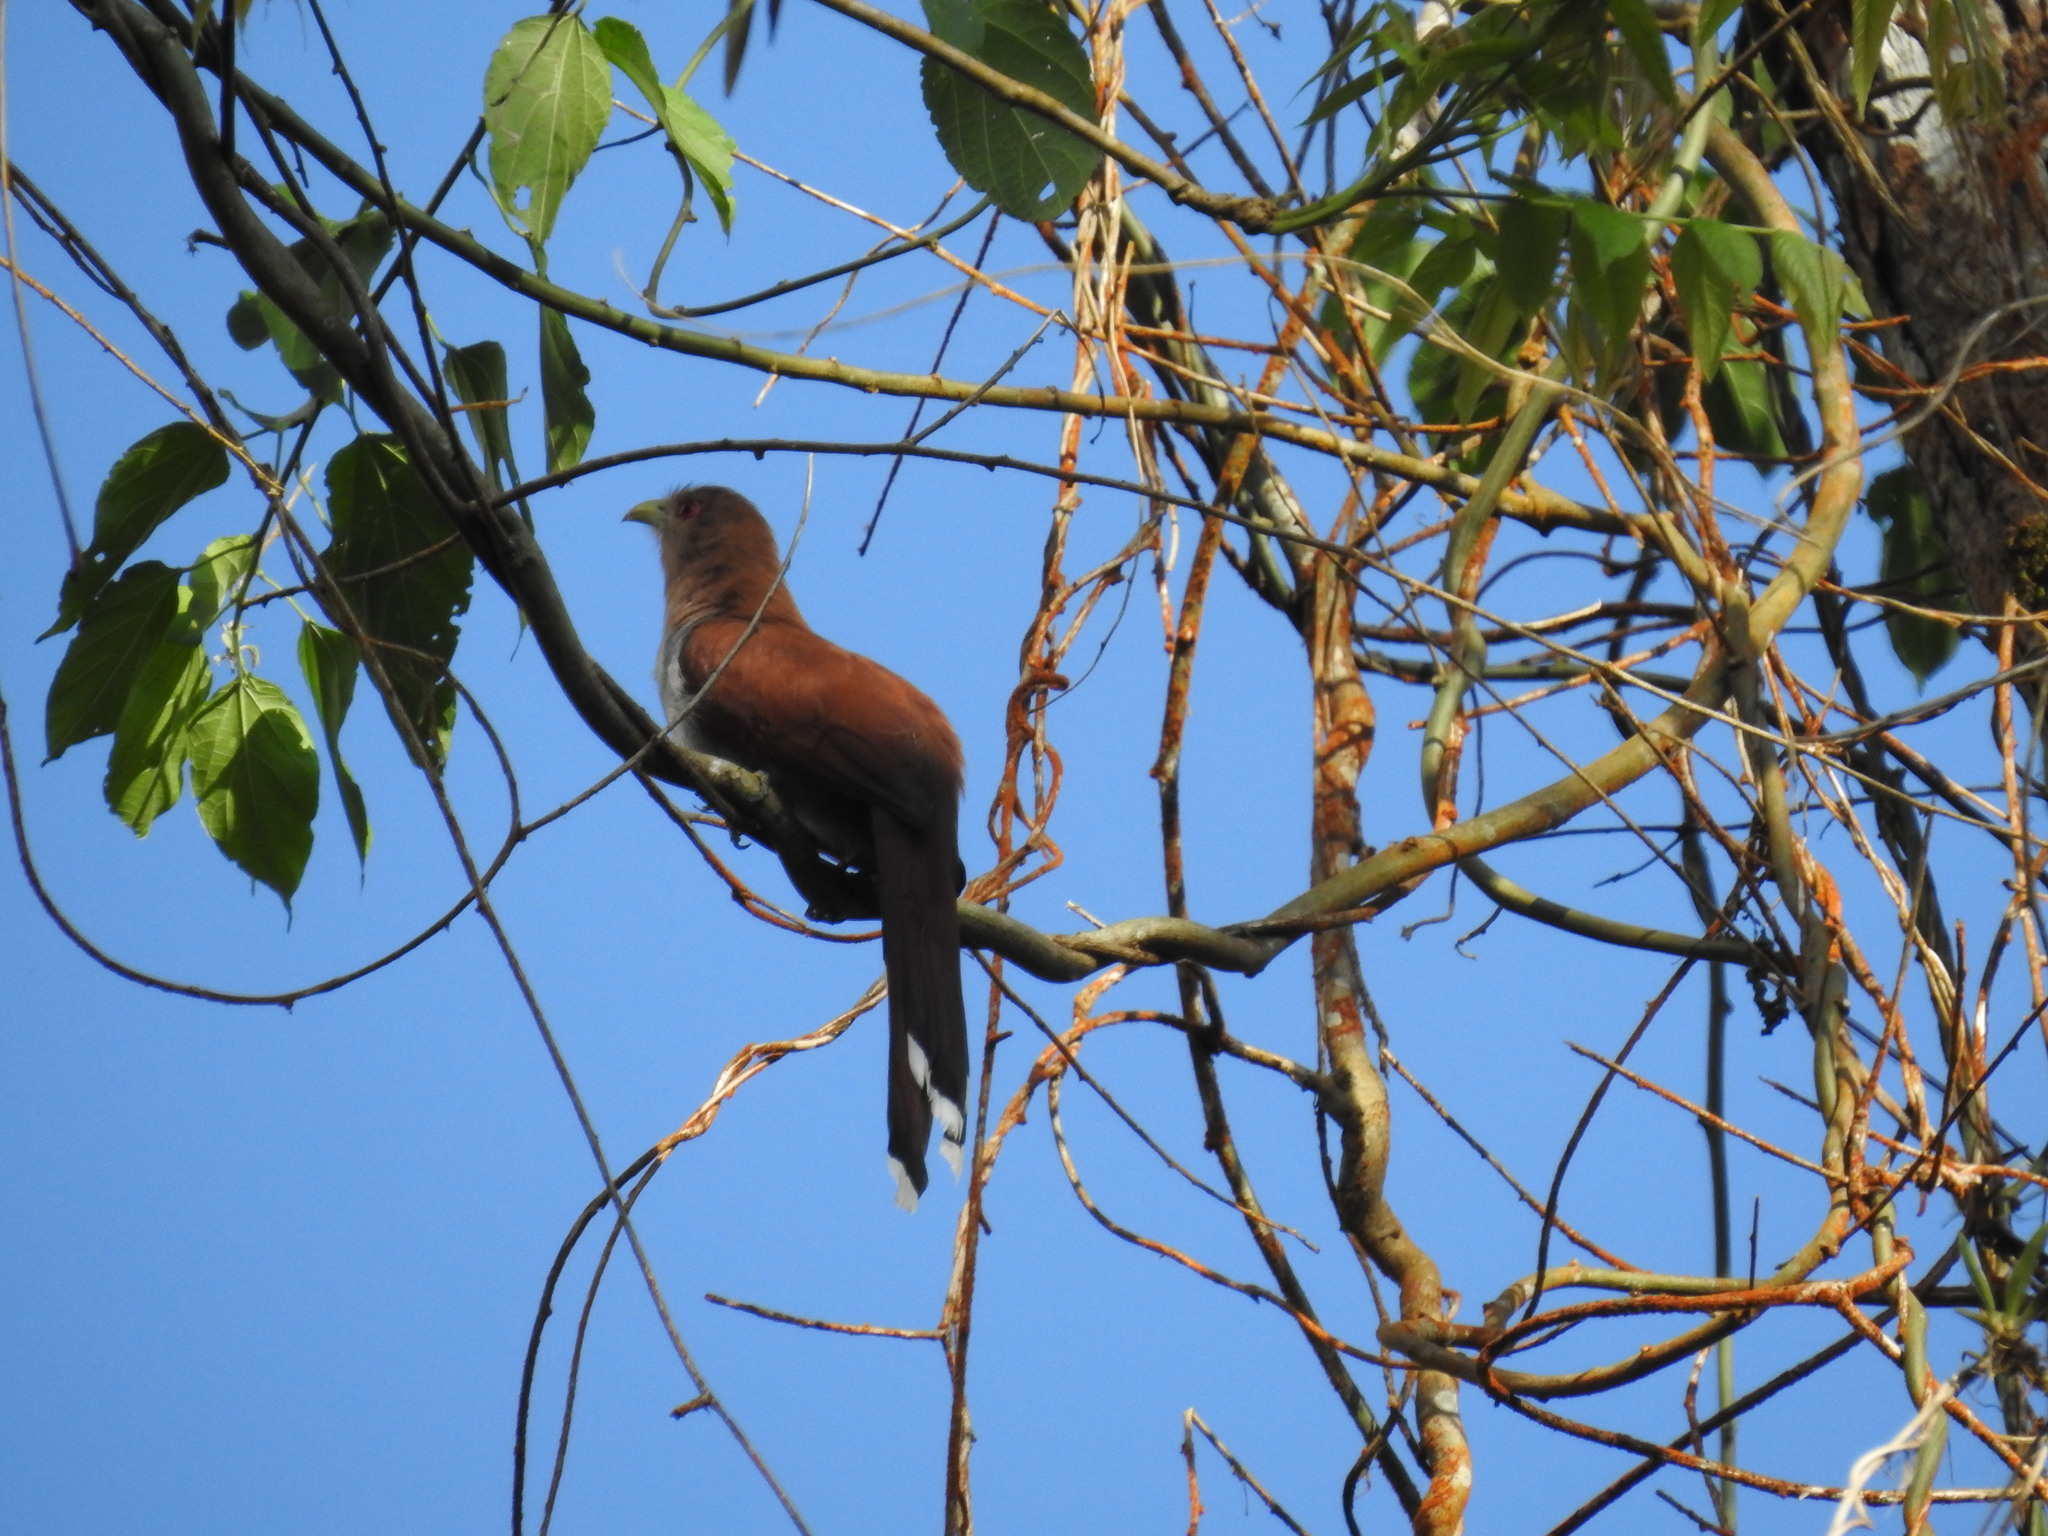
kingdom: Animalia
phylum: Chordata
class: Aves
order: Cuculiformes
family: Cuculidae
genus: Piaya
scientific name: Piaya cayana
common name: Squirrel cuckoo
